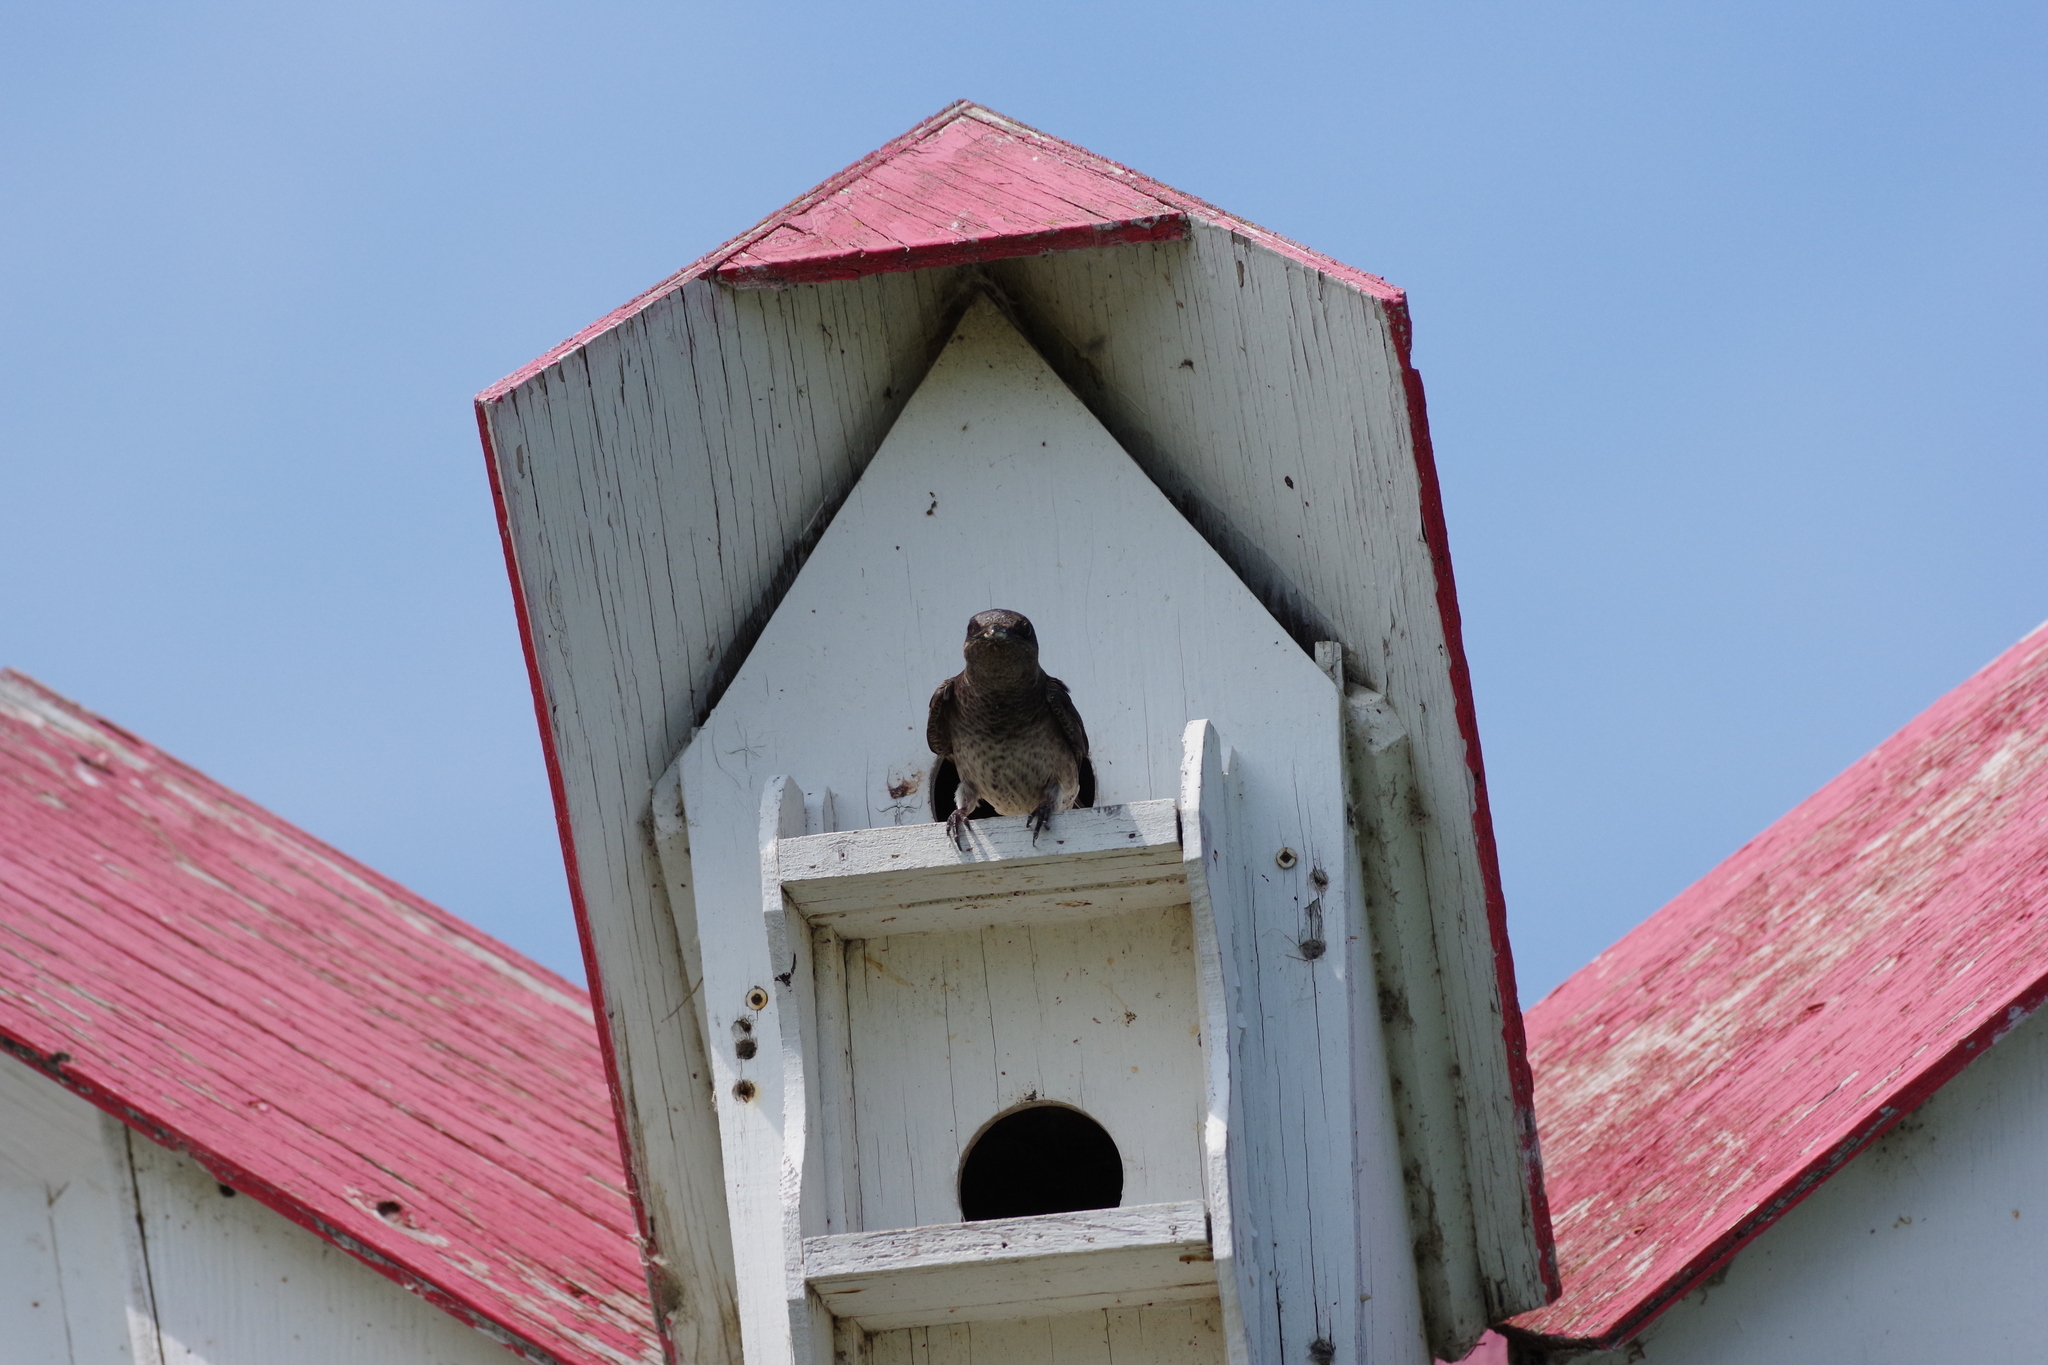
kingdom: Animalia
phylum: Chordata
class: Aves
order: Passeriformes
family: Hirundinidae
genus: Progne
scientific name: Progne subis
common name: Purple martin
